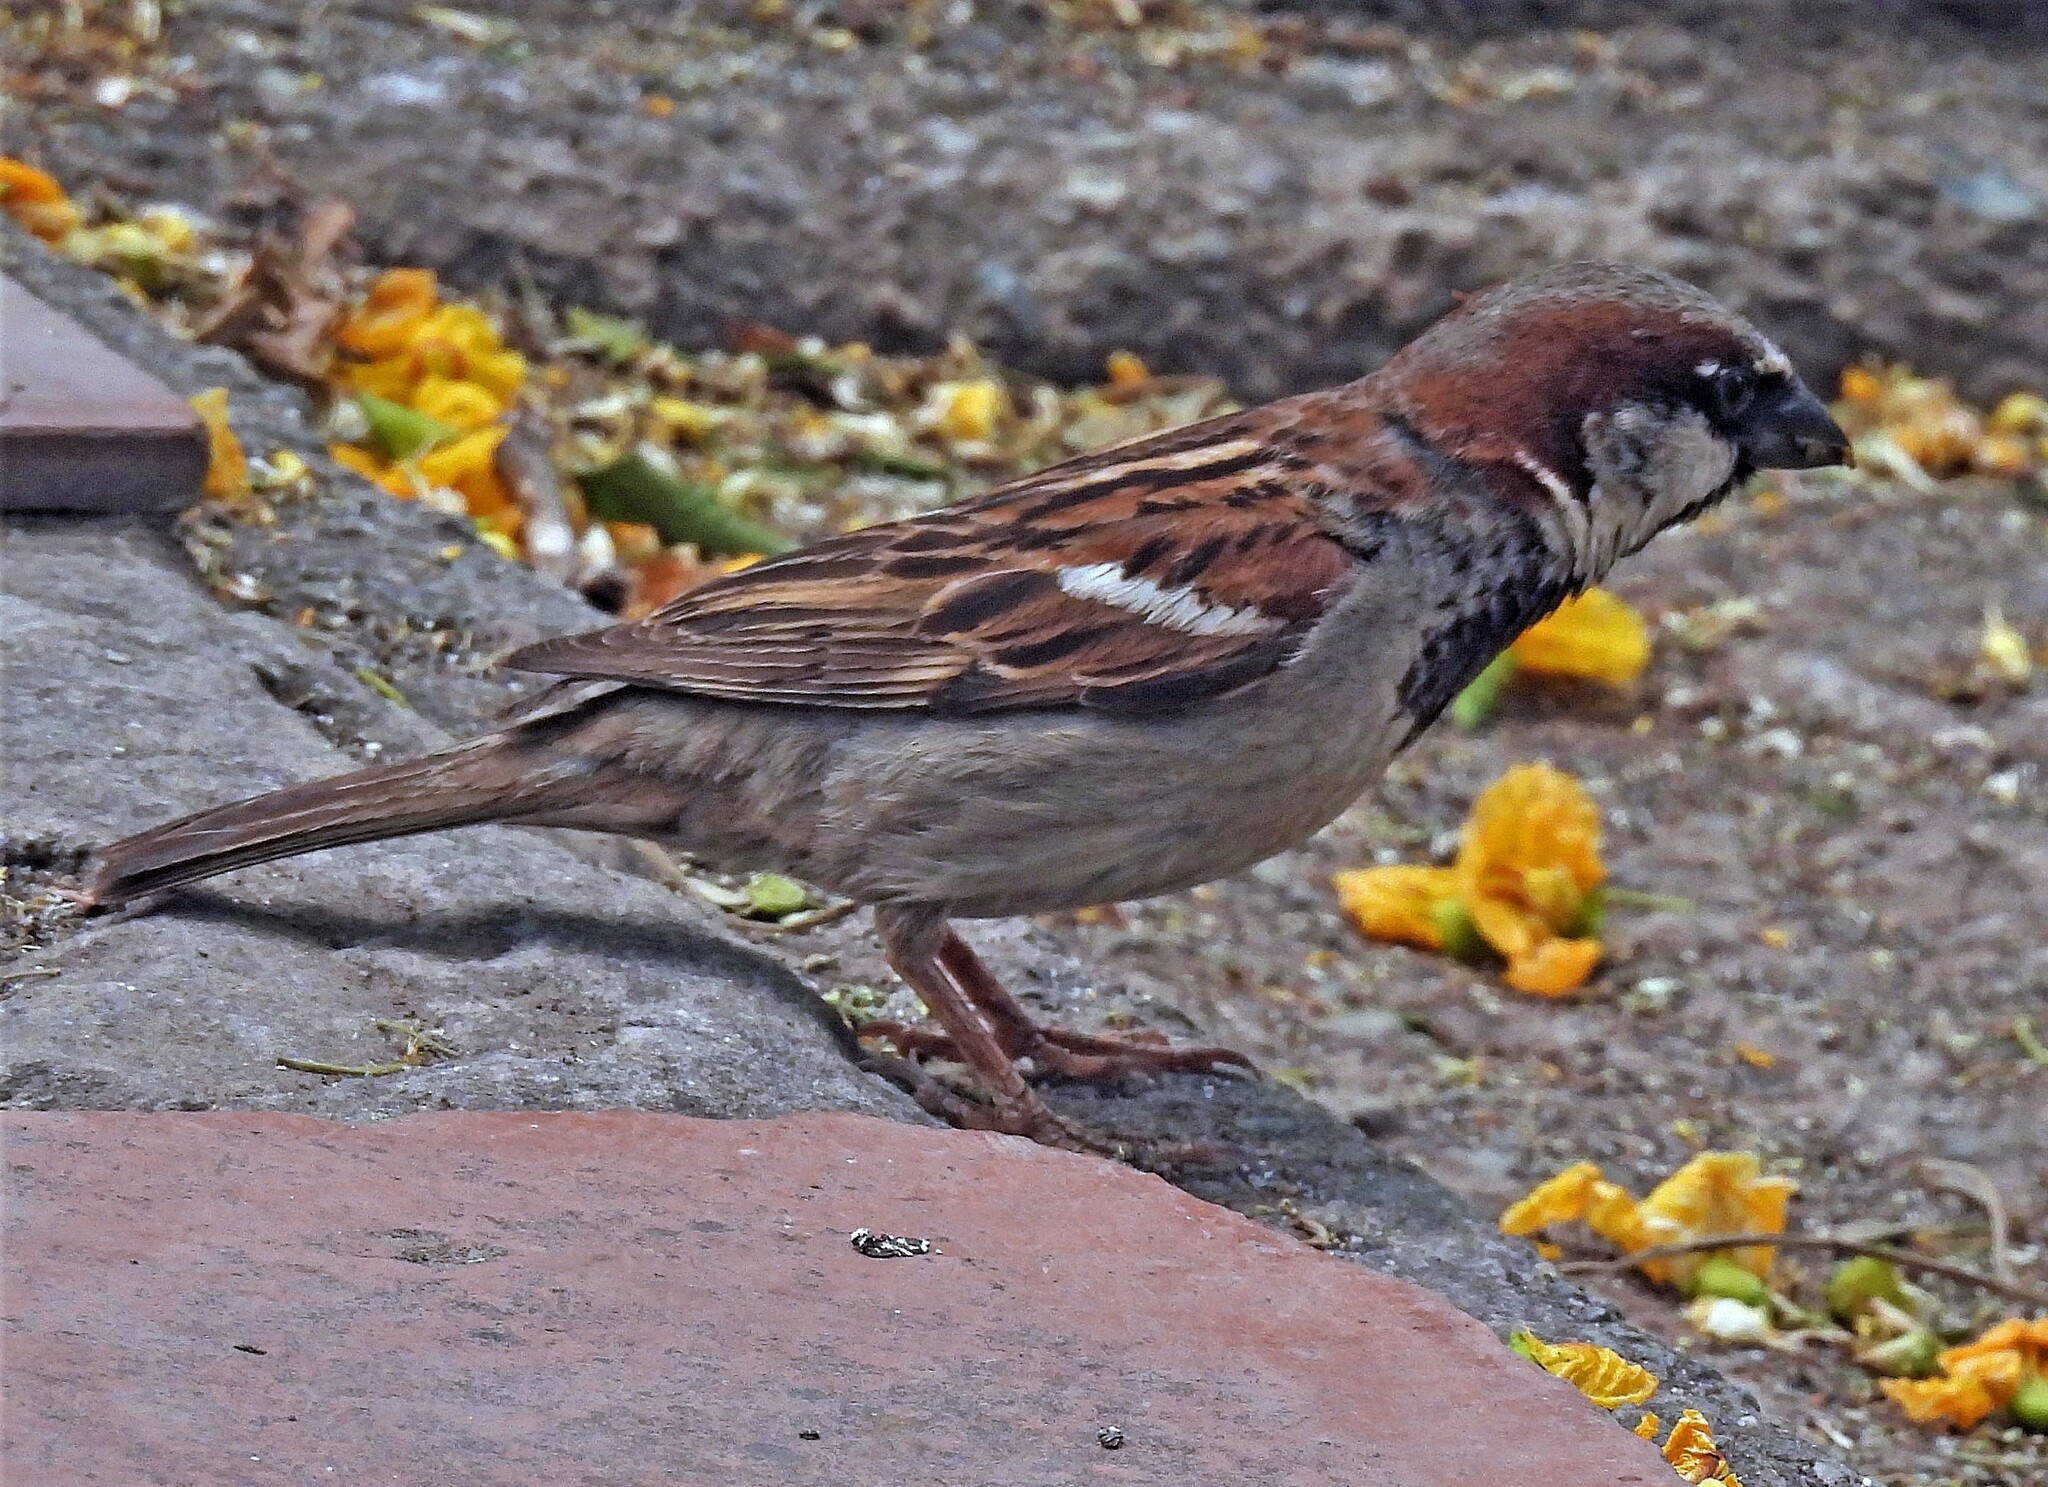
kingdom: Animalia
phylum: Chordata
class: Aves
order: Passeriformes
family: Passeridae
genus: Passer
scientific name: Passer domesticus
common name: House sparrow
